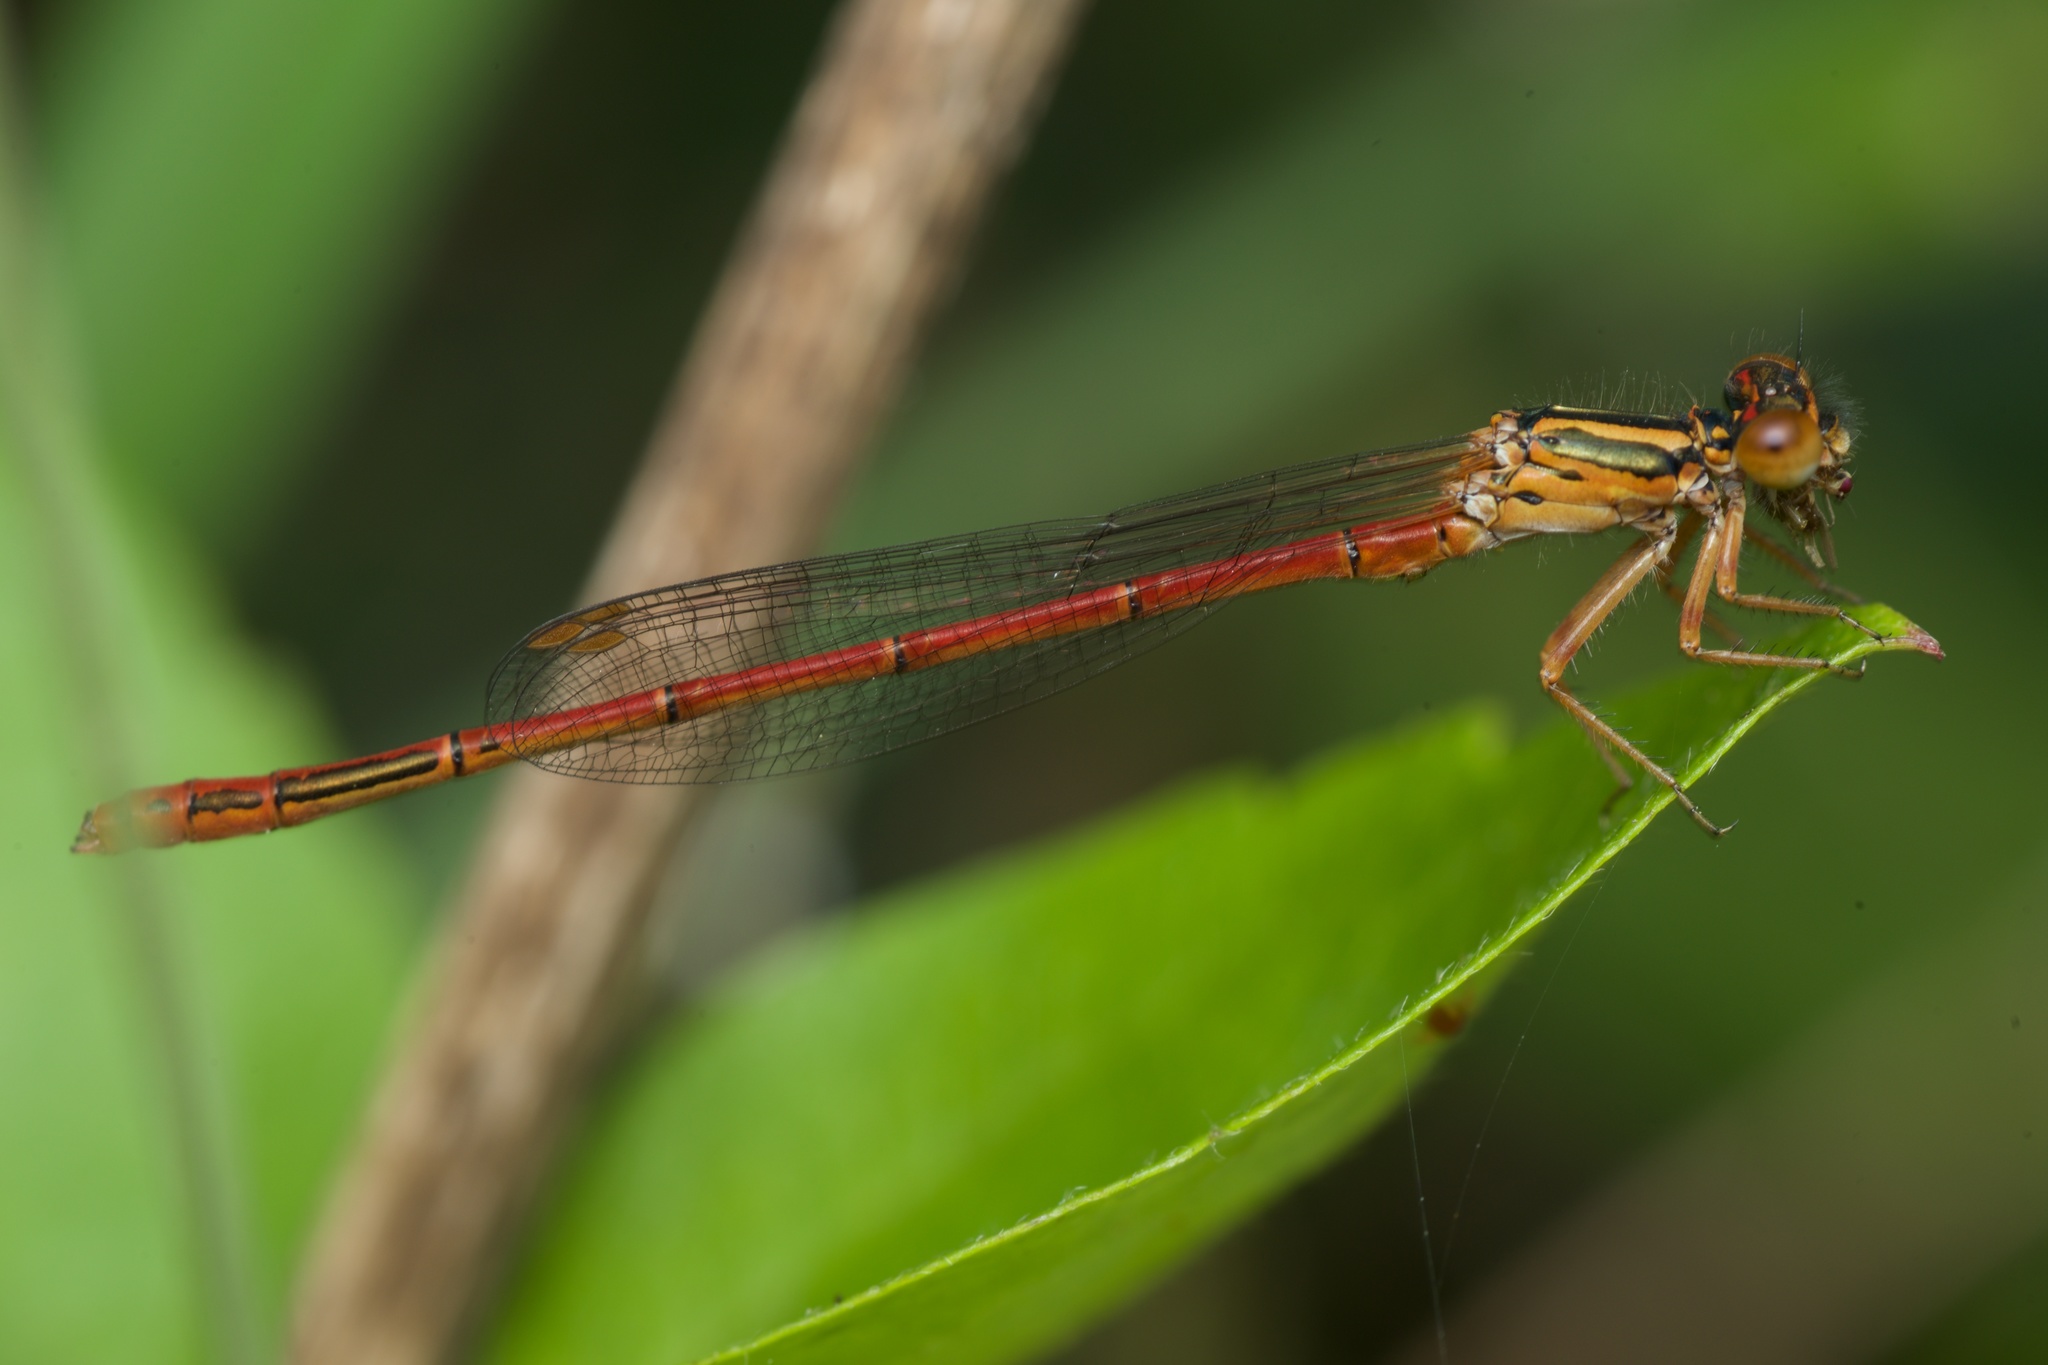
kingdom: Animalia
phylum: Arthropoda
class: Insecta
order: Odonata
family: Coenagrionidae
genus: Xanthocnemis
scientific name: Xanthocnemis zealandica
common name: Common redcoat damselfly
